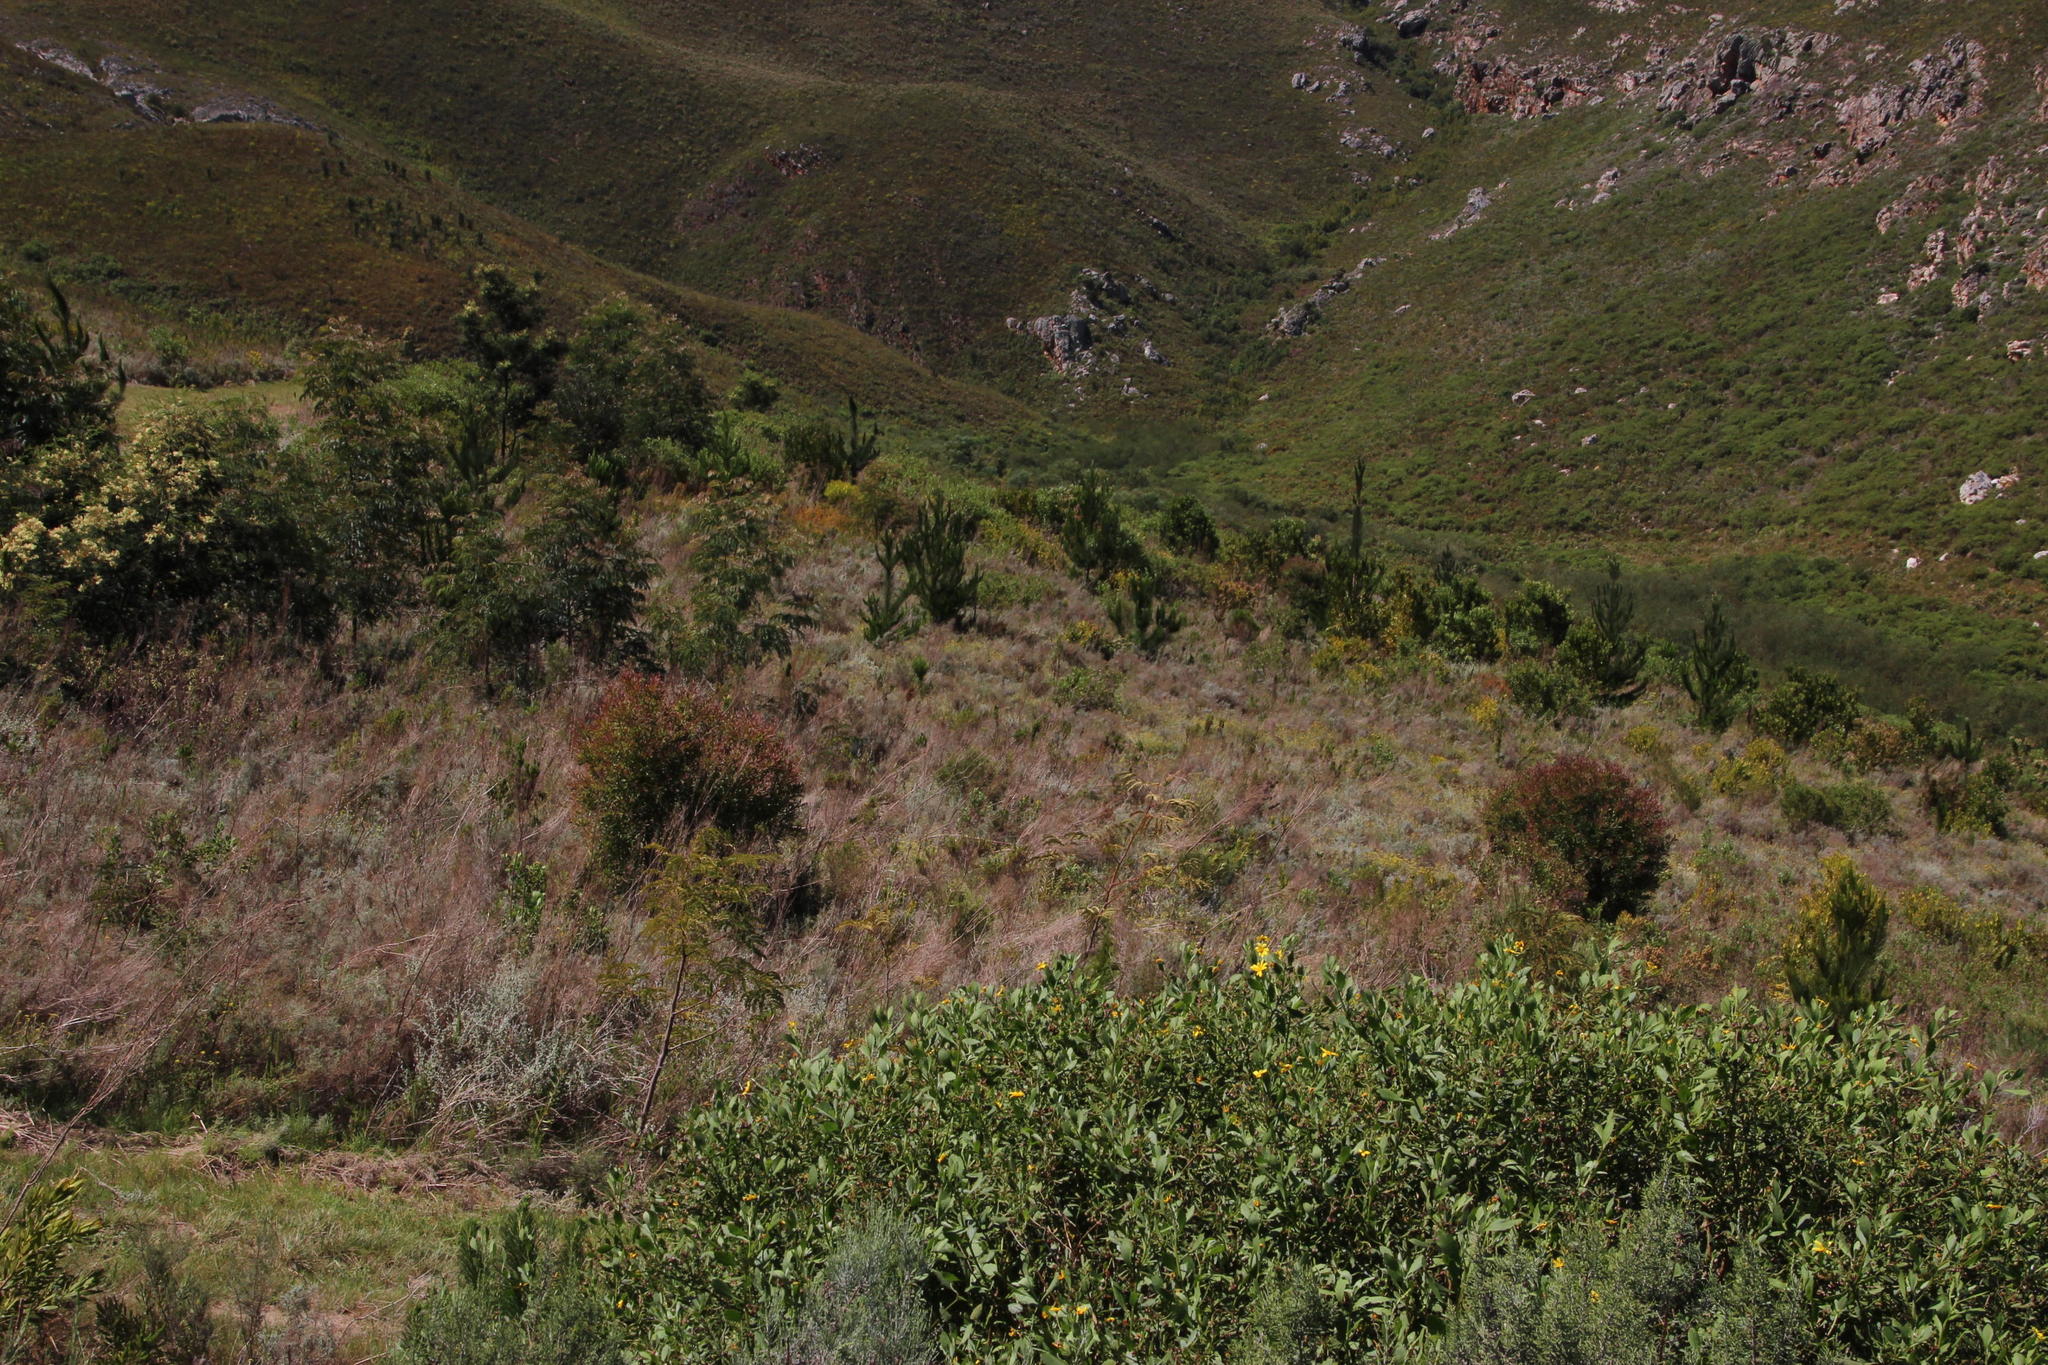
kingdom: Plantae
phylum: Tracheophyta
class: Magnoliopsida
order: Proteales
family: Proteaceae
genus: Hakea
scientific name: Hakea salicifolia
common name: Willow hakea
